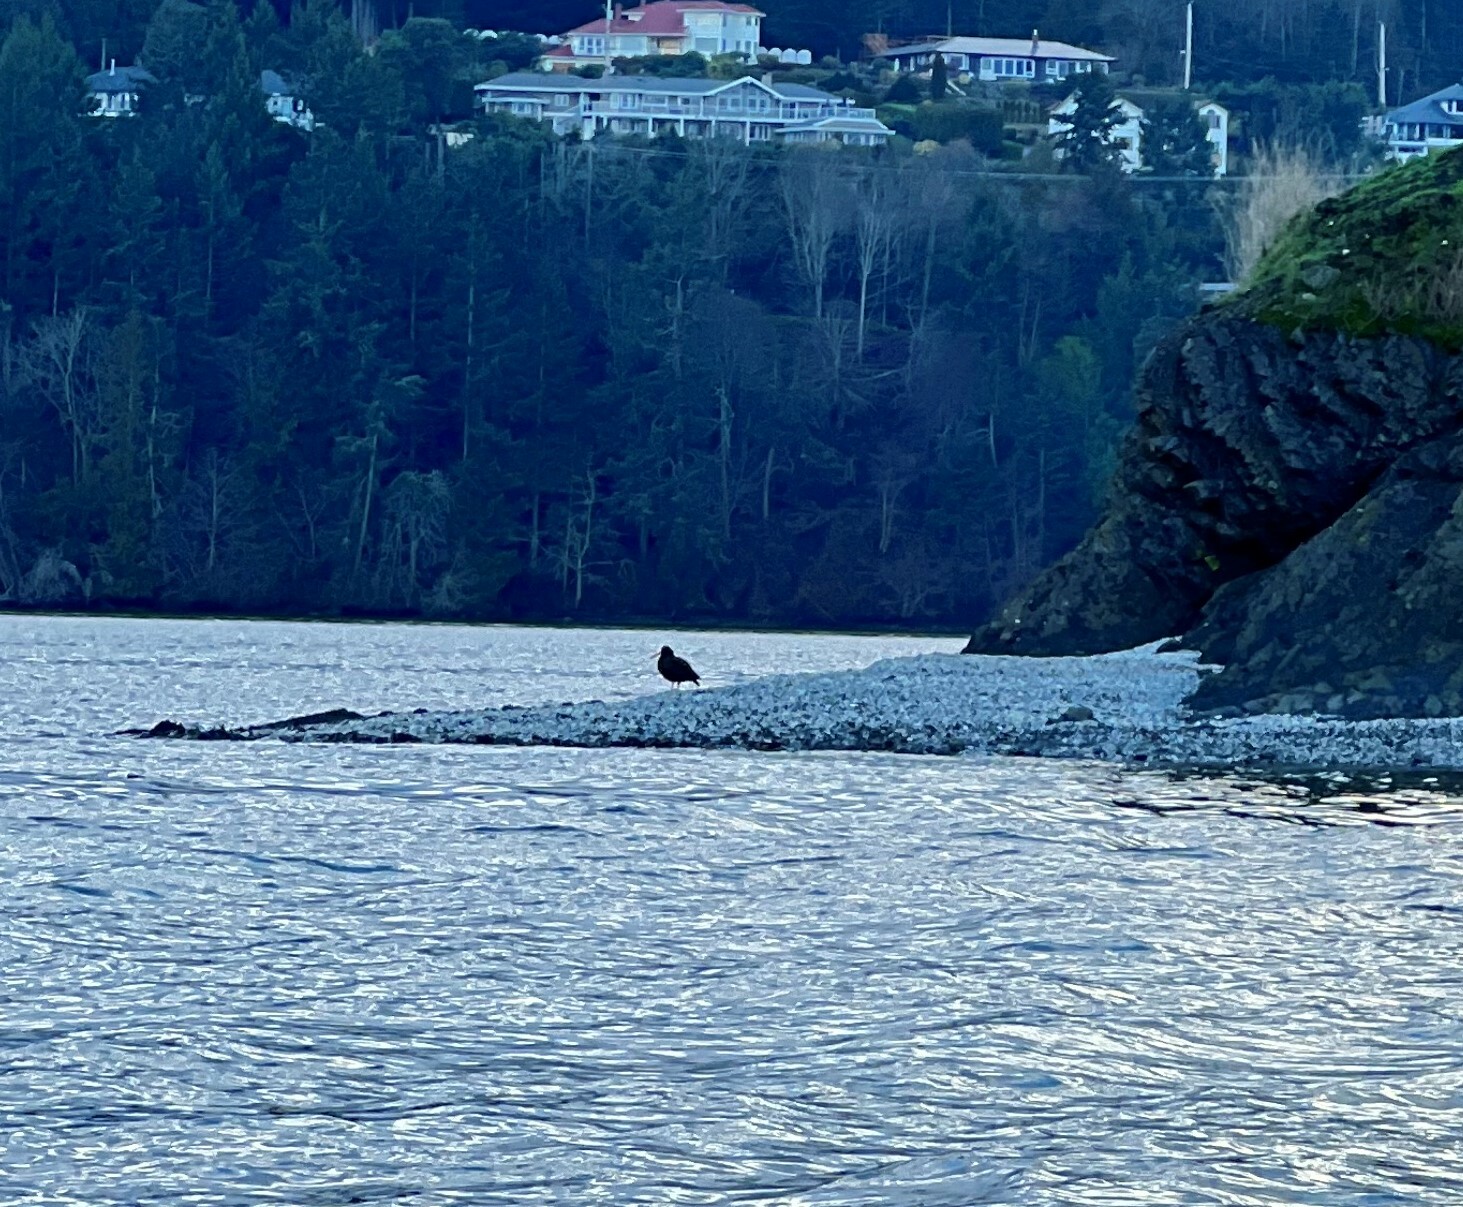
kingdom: Animalia
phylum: Chordata
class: Aves
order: Charadriiformes
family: Haematopodidae
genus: Haematopus
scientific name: Haematopus bachmani
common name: Black oystercatcher
